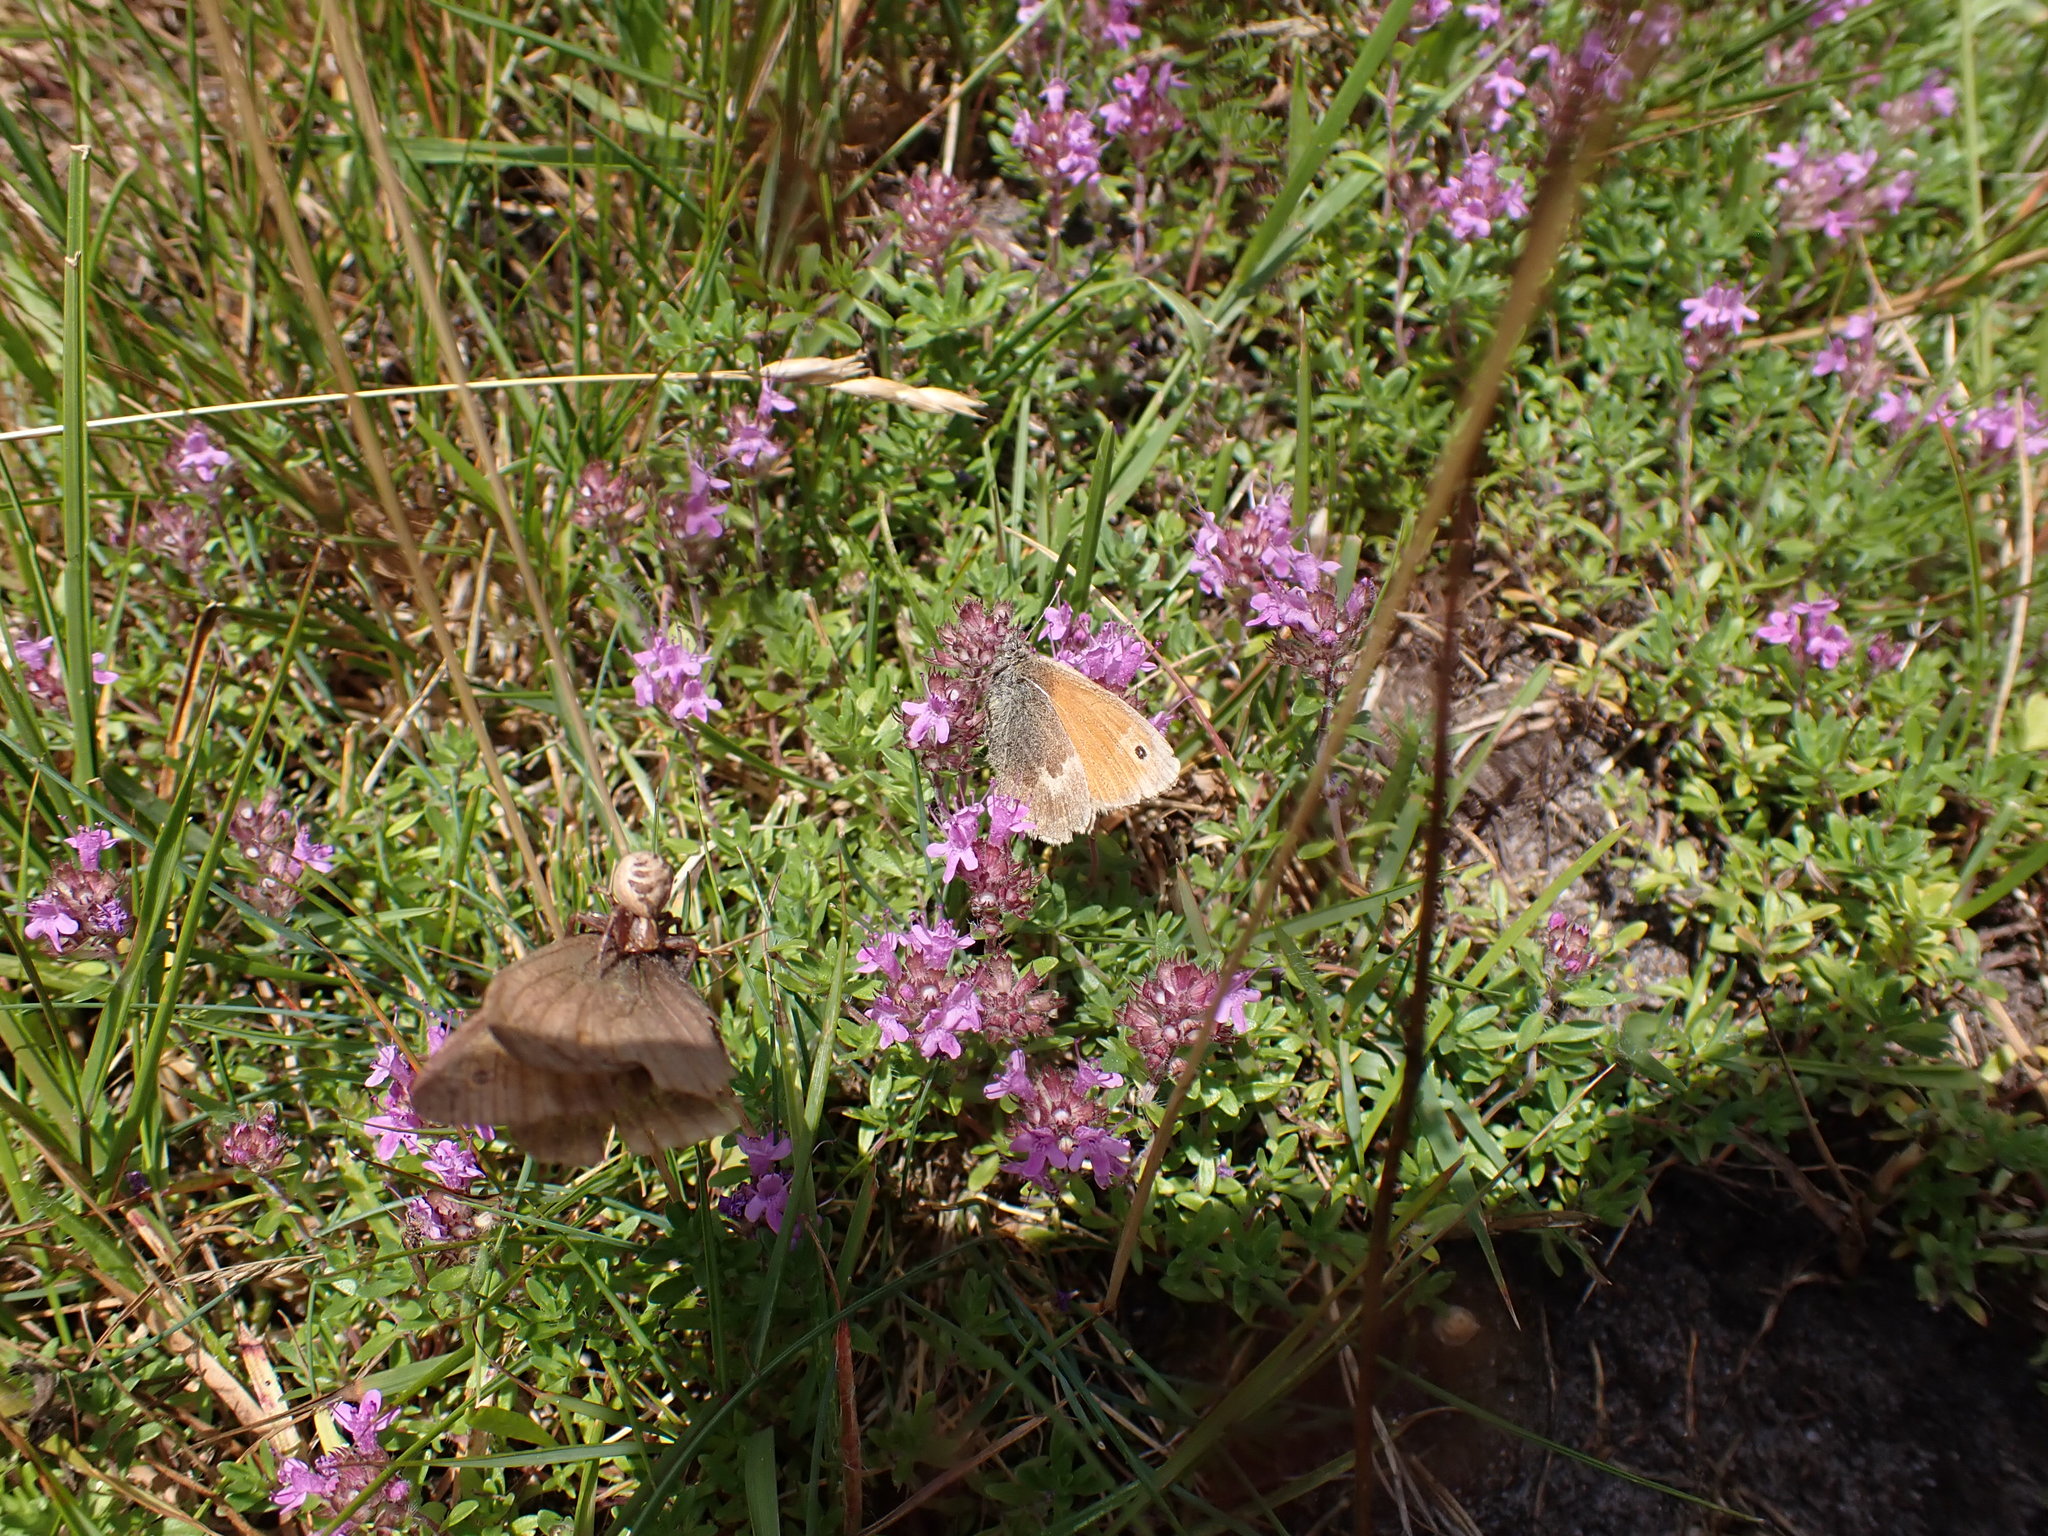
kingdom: Animalia
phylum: Arthropoda
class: Insecta
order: Lepidoptera
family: Nymphalidae
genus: Coenonympha
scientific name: Coenonympha pamphilus
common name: Small heath
